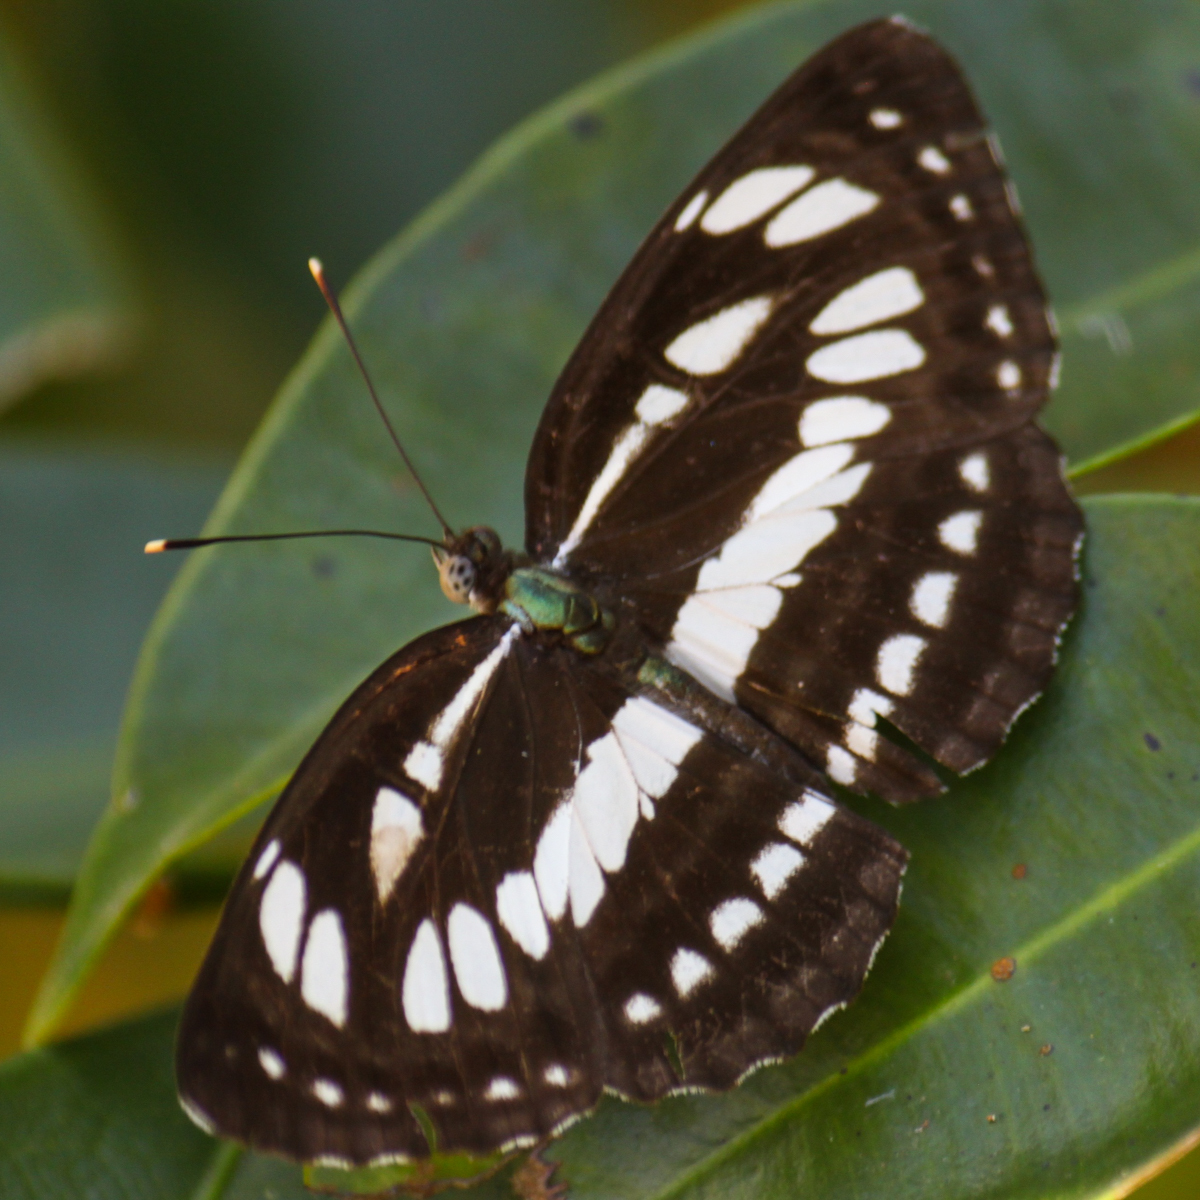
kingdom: Animalia
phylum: Arthropoda
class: Insecta
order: Lepidoptera
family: Nymphalidae
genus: Neptis
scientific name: Neptis hylas
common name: Common sailer
